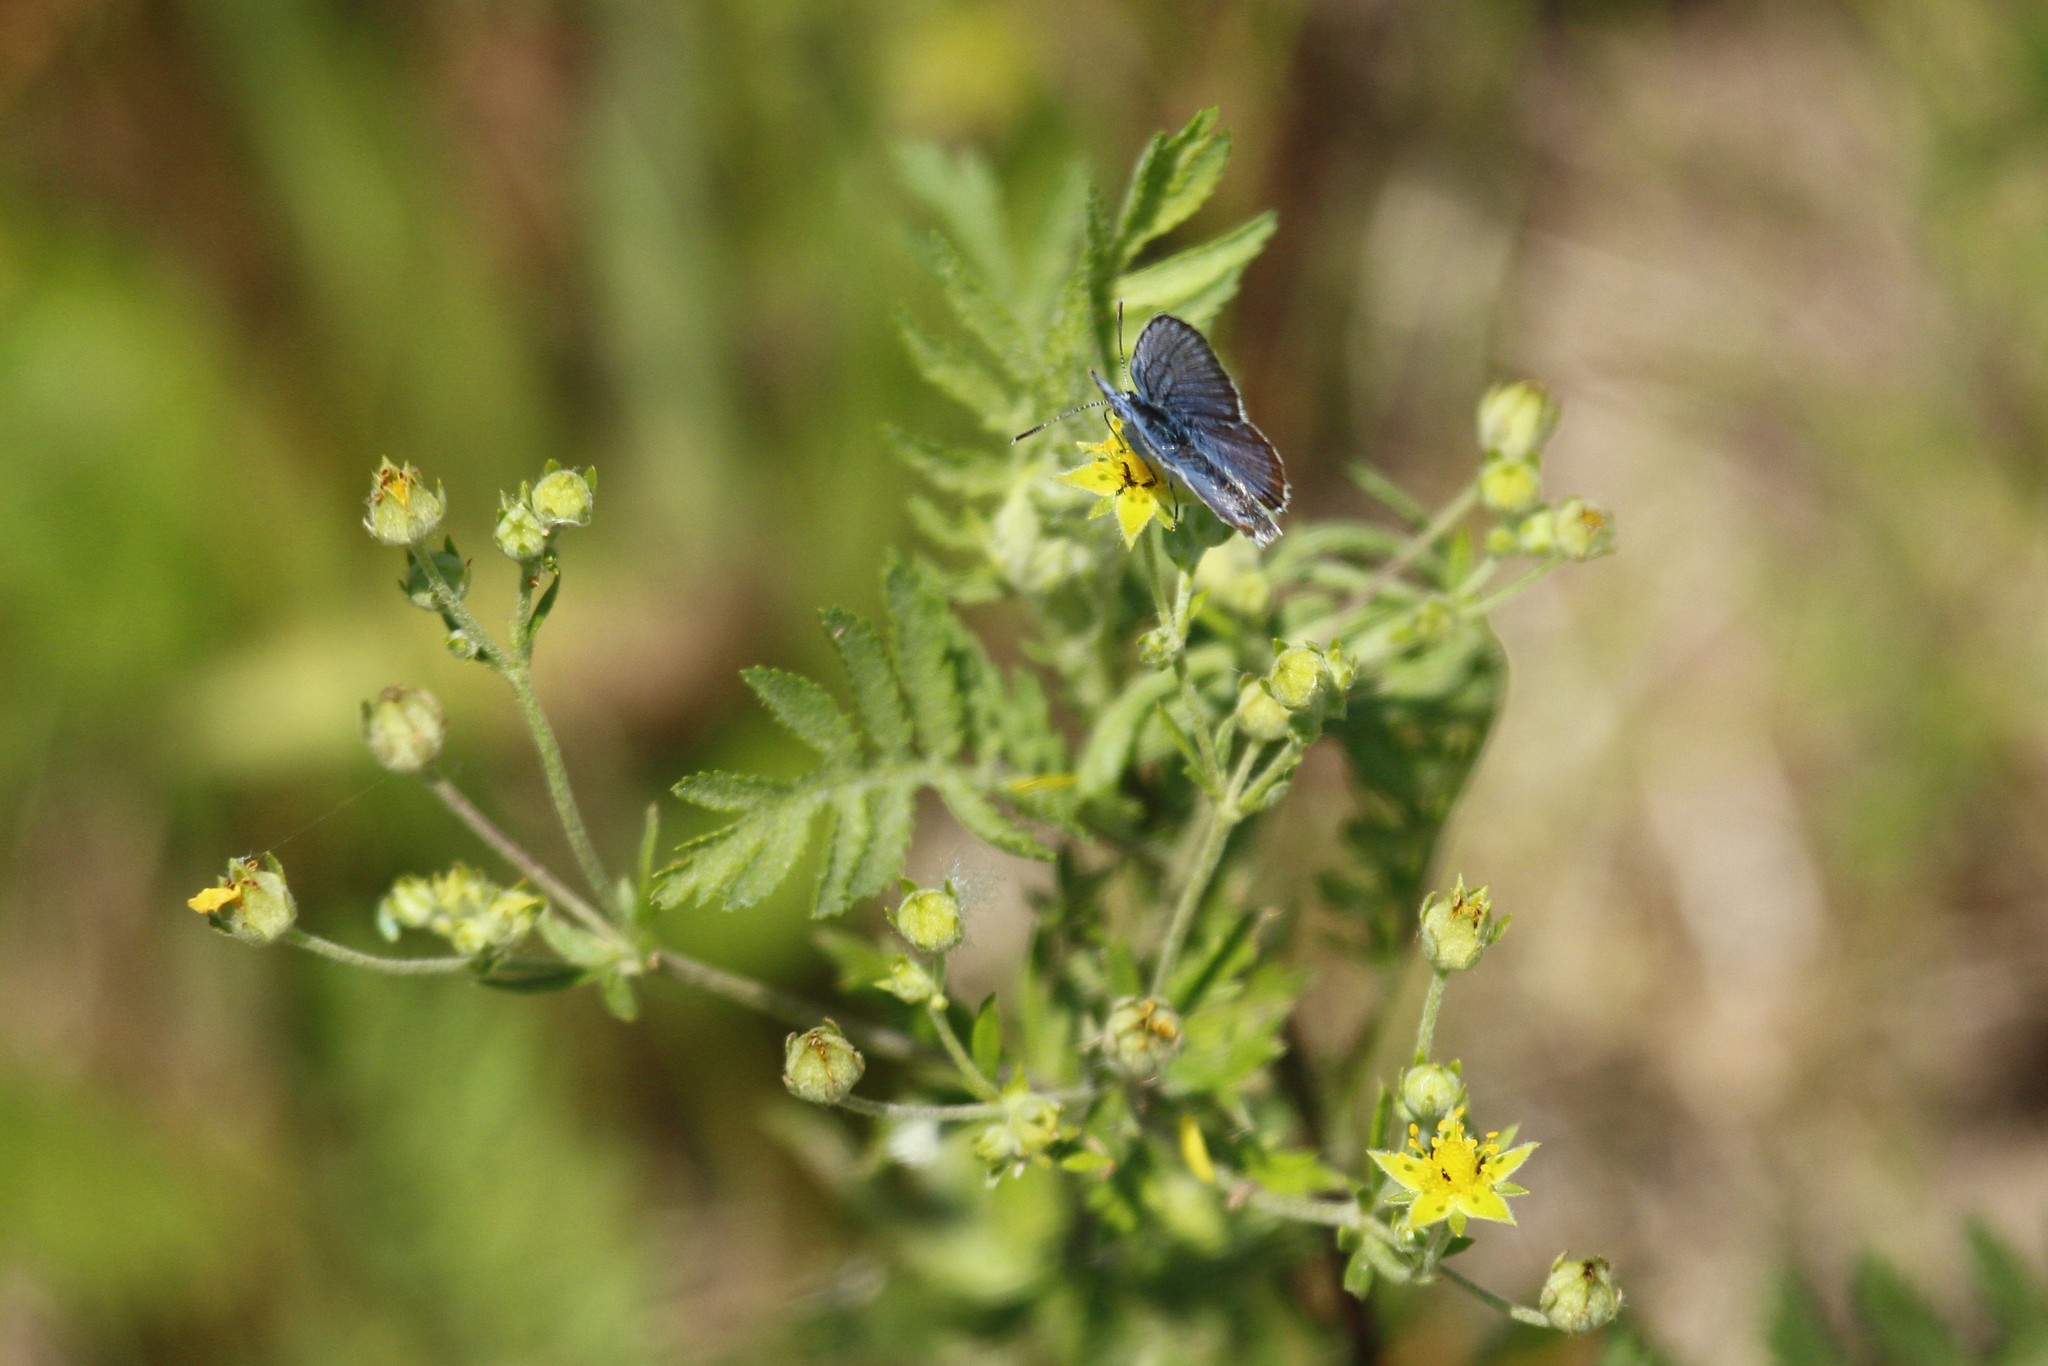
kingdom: Plantae
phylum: Tracheophyta
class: Magnoliopsida
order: Rosales
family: Rosaceae
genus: Potentilla
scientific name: Potentilla argentea
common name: Hoary cinquefoil
